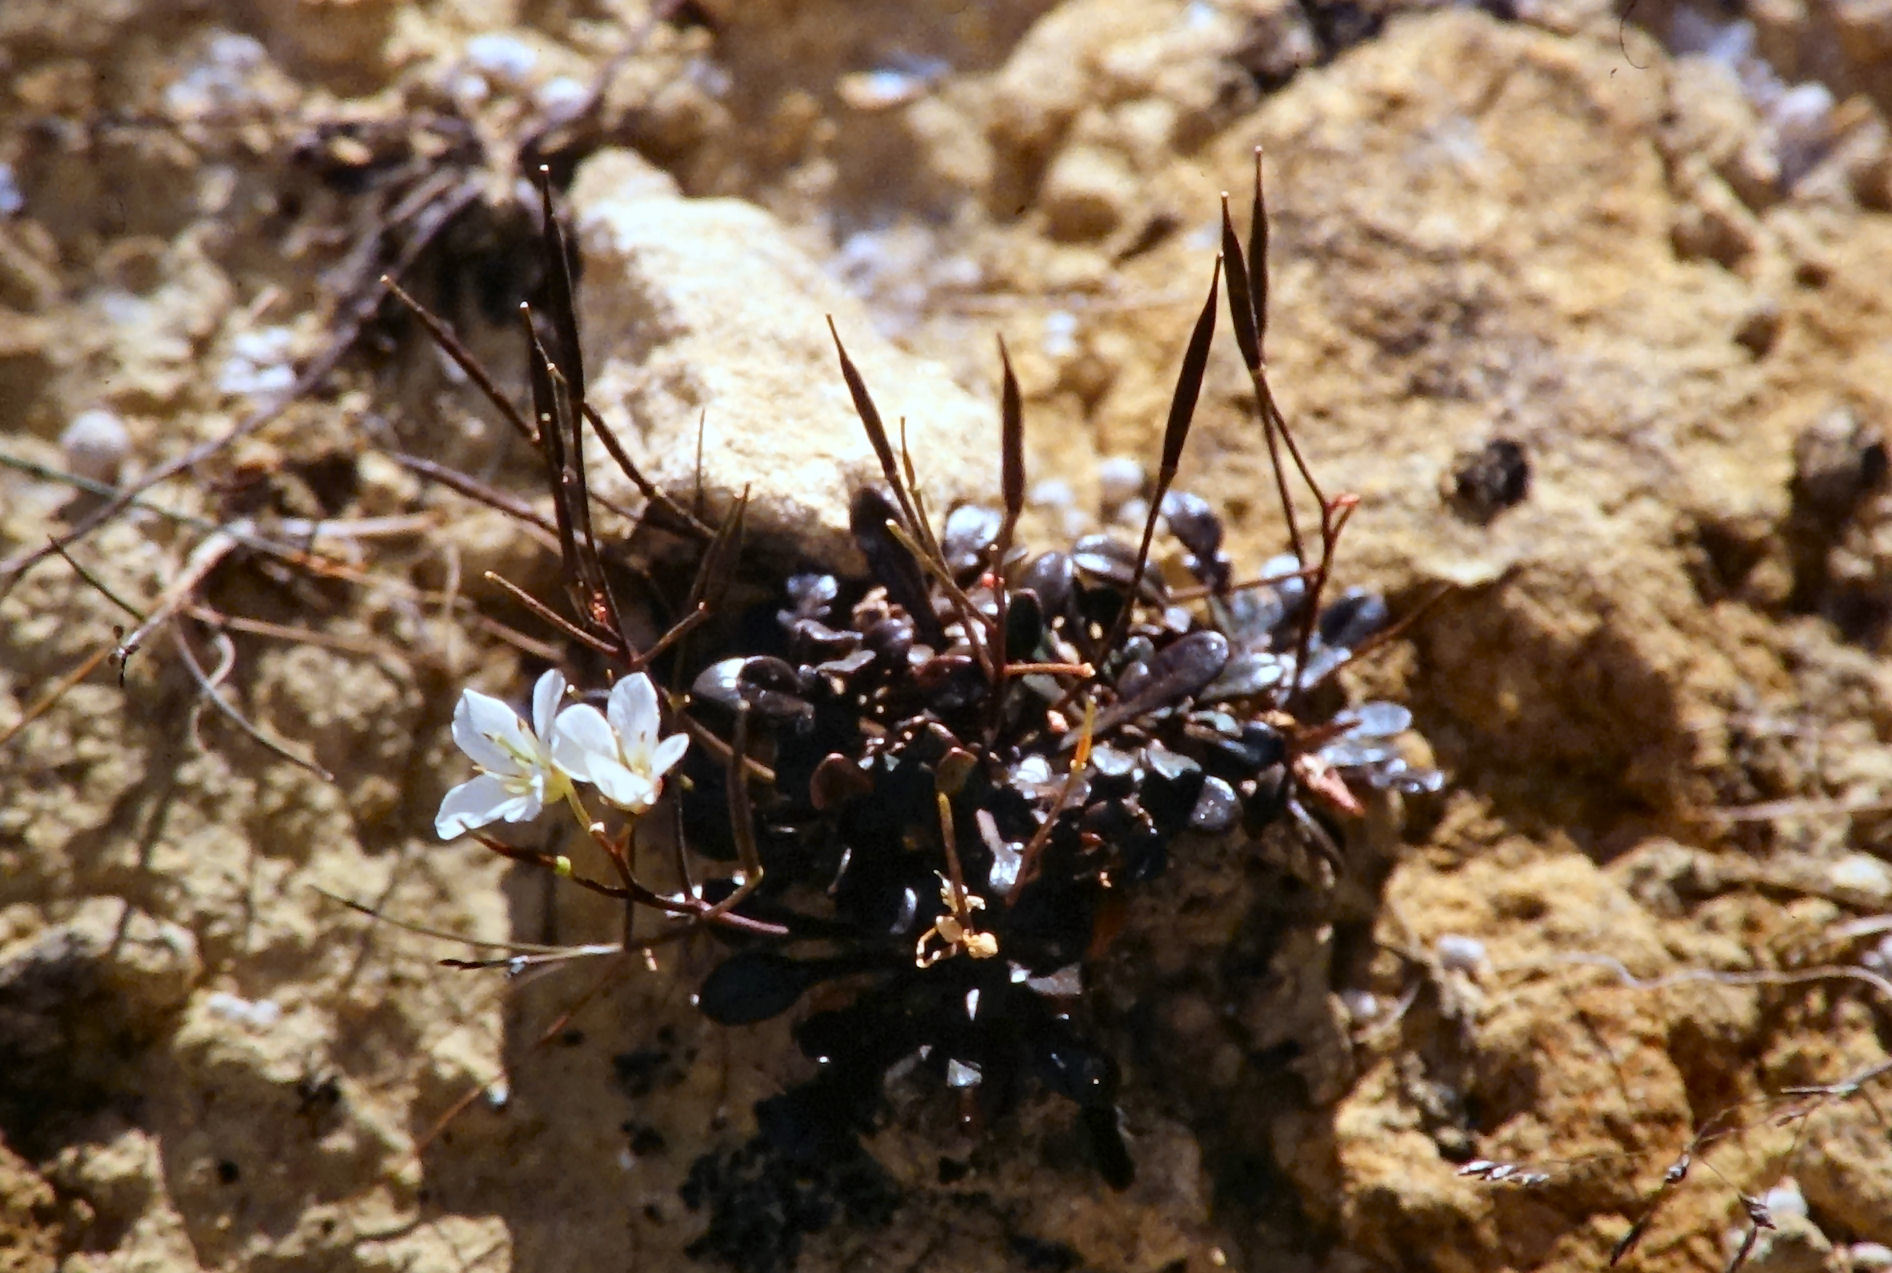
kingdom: Plantae
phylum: Tracheophyta
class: Magnoliopsida
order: Brassicales
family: Brassicaceae
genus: Cardamine
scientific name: Cardamine bilobata
